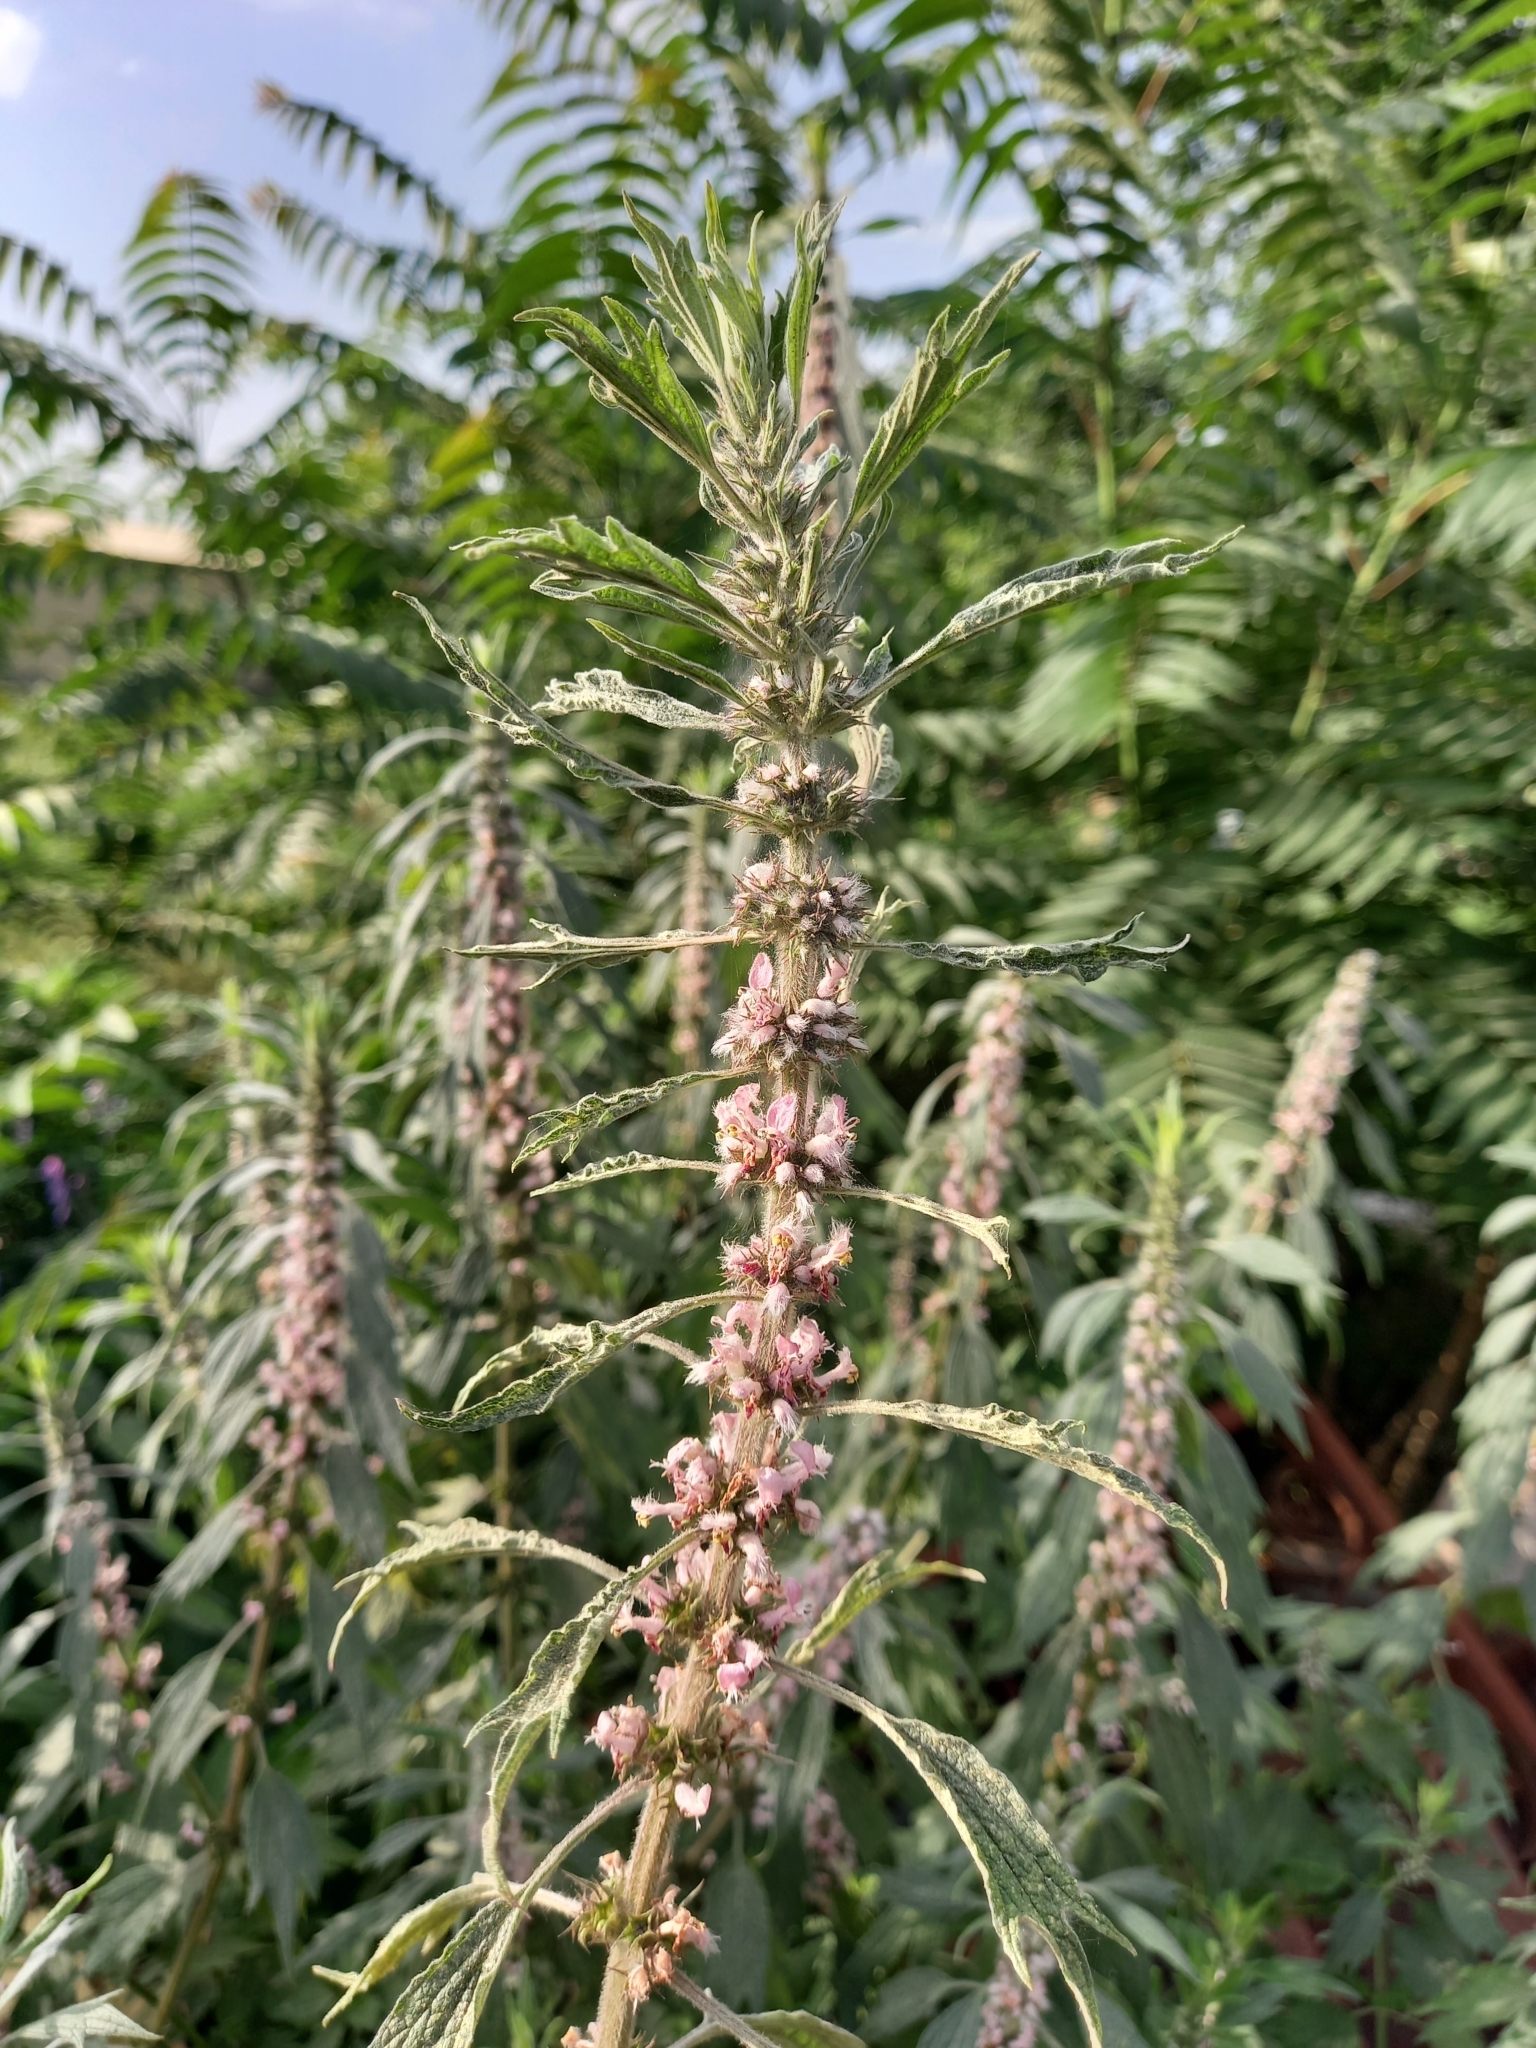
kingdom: Plantae
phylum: Tracheophyta
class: Magnoliopsida
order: Lamiales
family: Lamiaceae
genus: Leonurus
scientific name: Leonurus quinquelobatus
